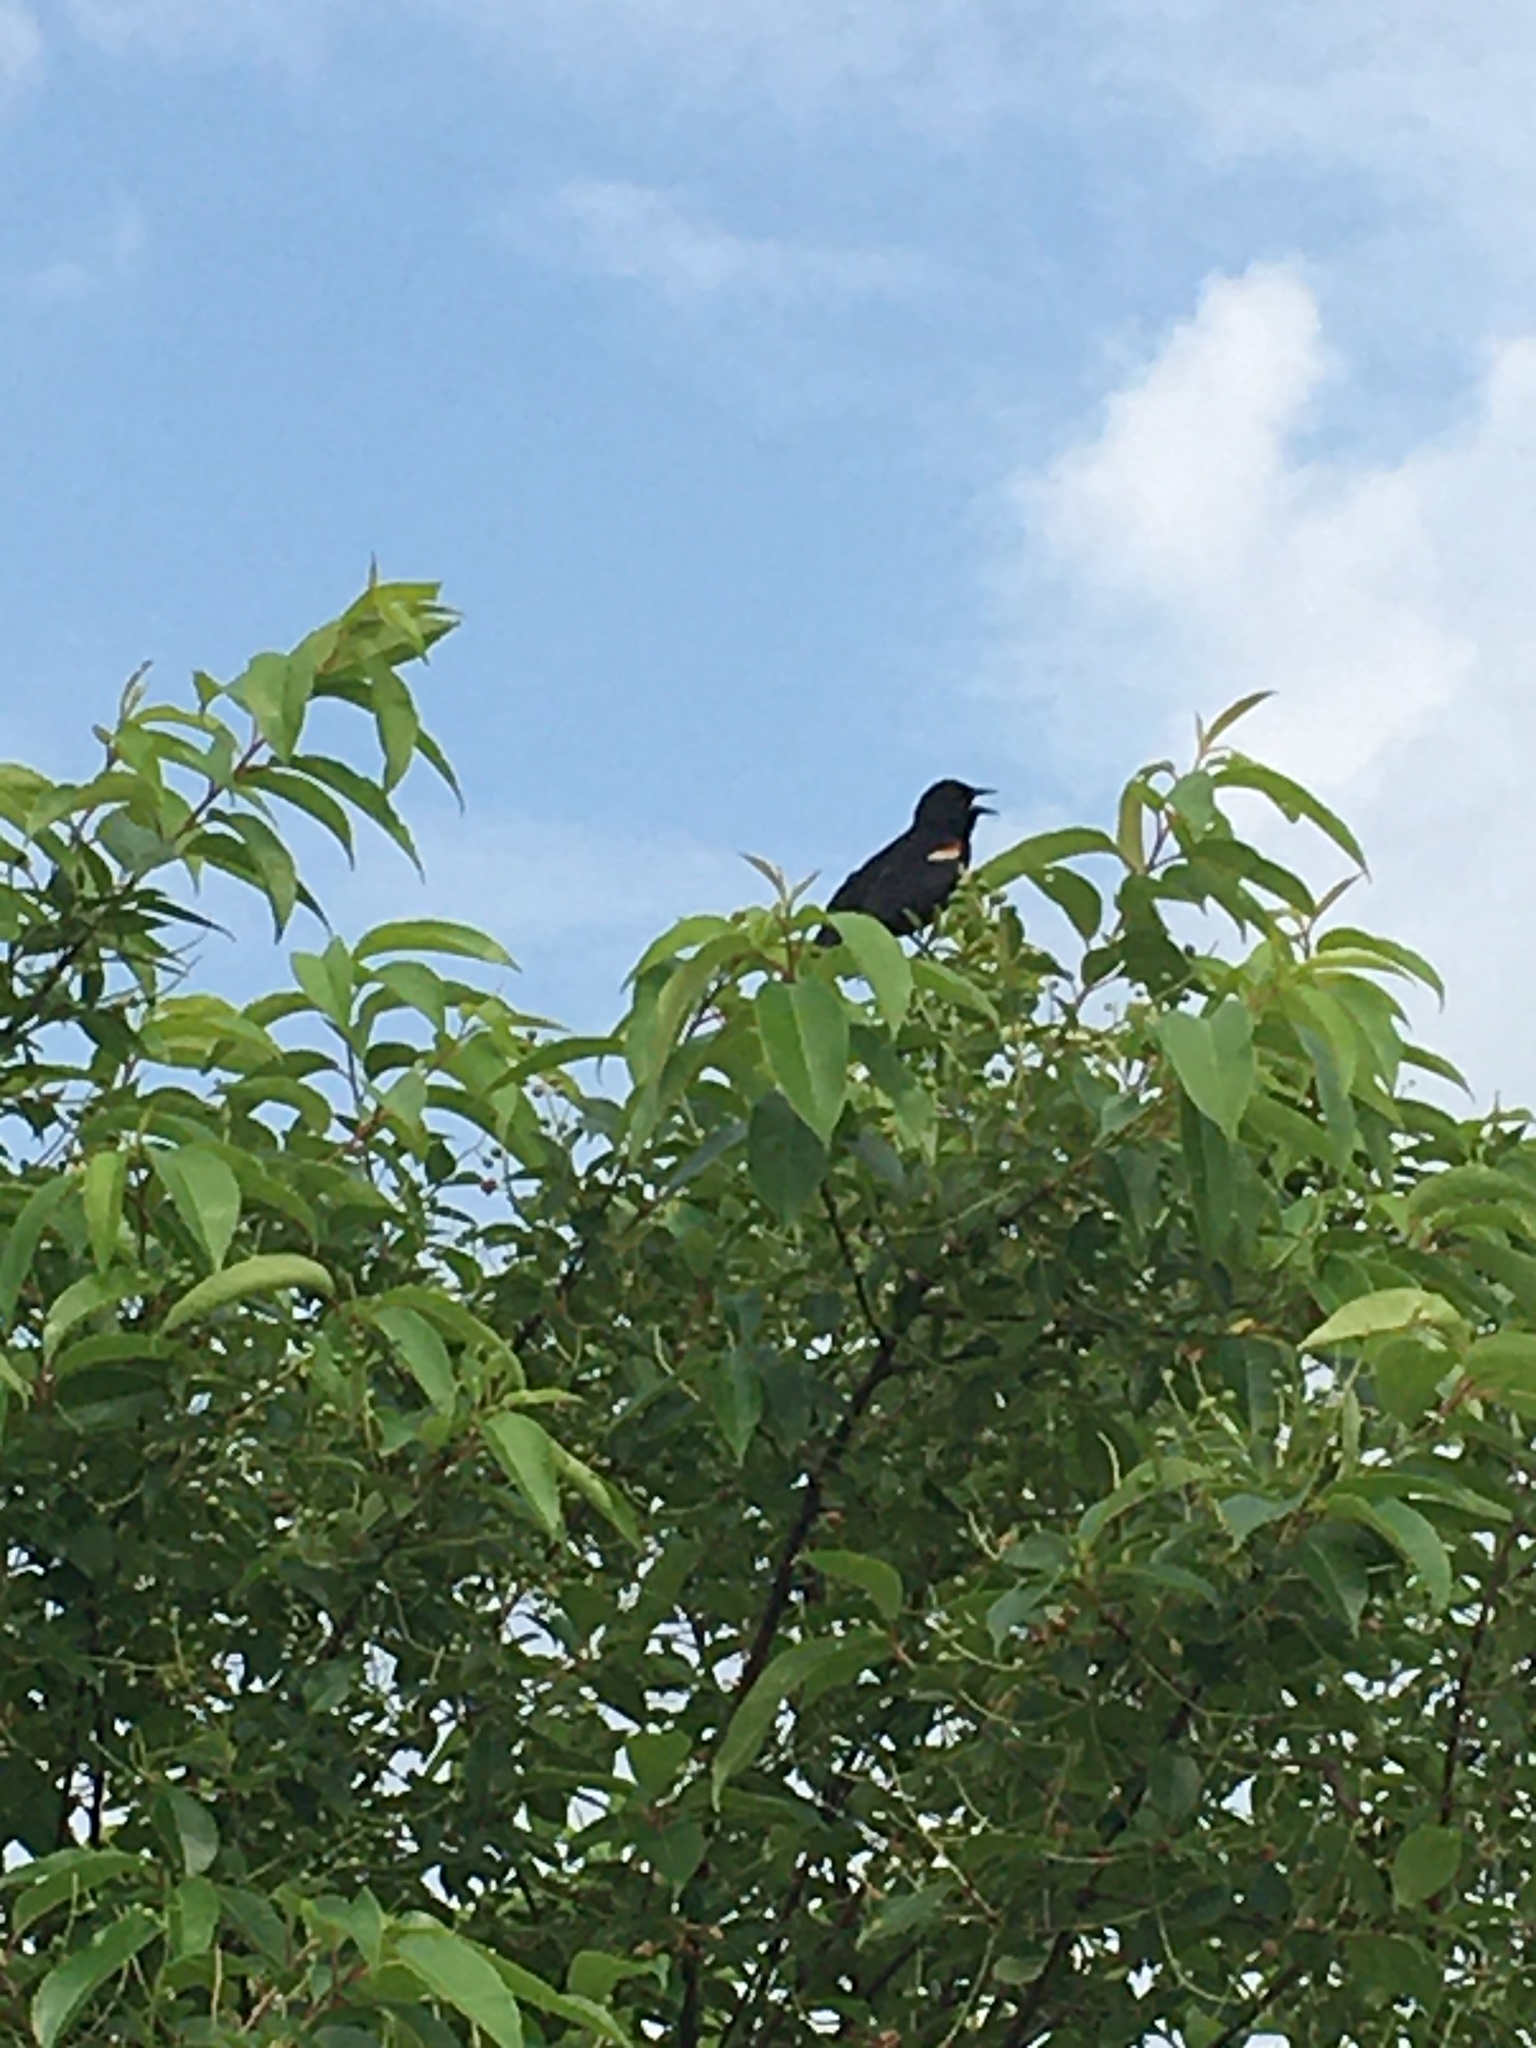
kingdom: Animalia
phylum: Chordata
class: Aves
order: Passeriformes
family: Icteridae
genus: Agelaius
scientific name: Agelaius phoeniceus
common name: Red-winged blackbird
